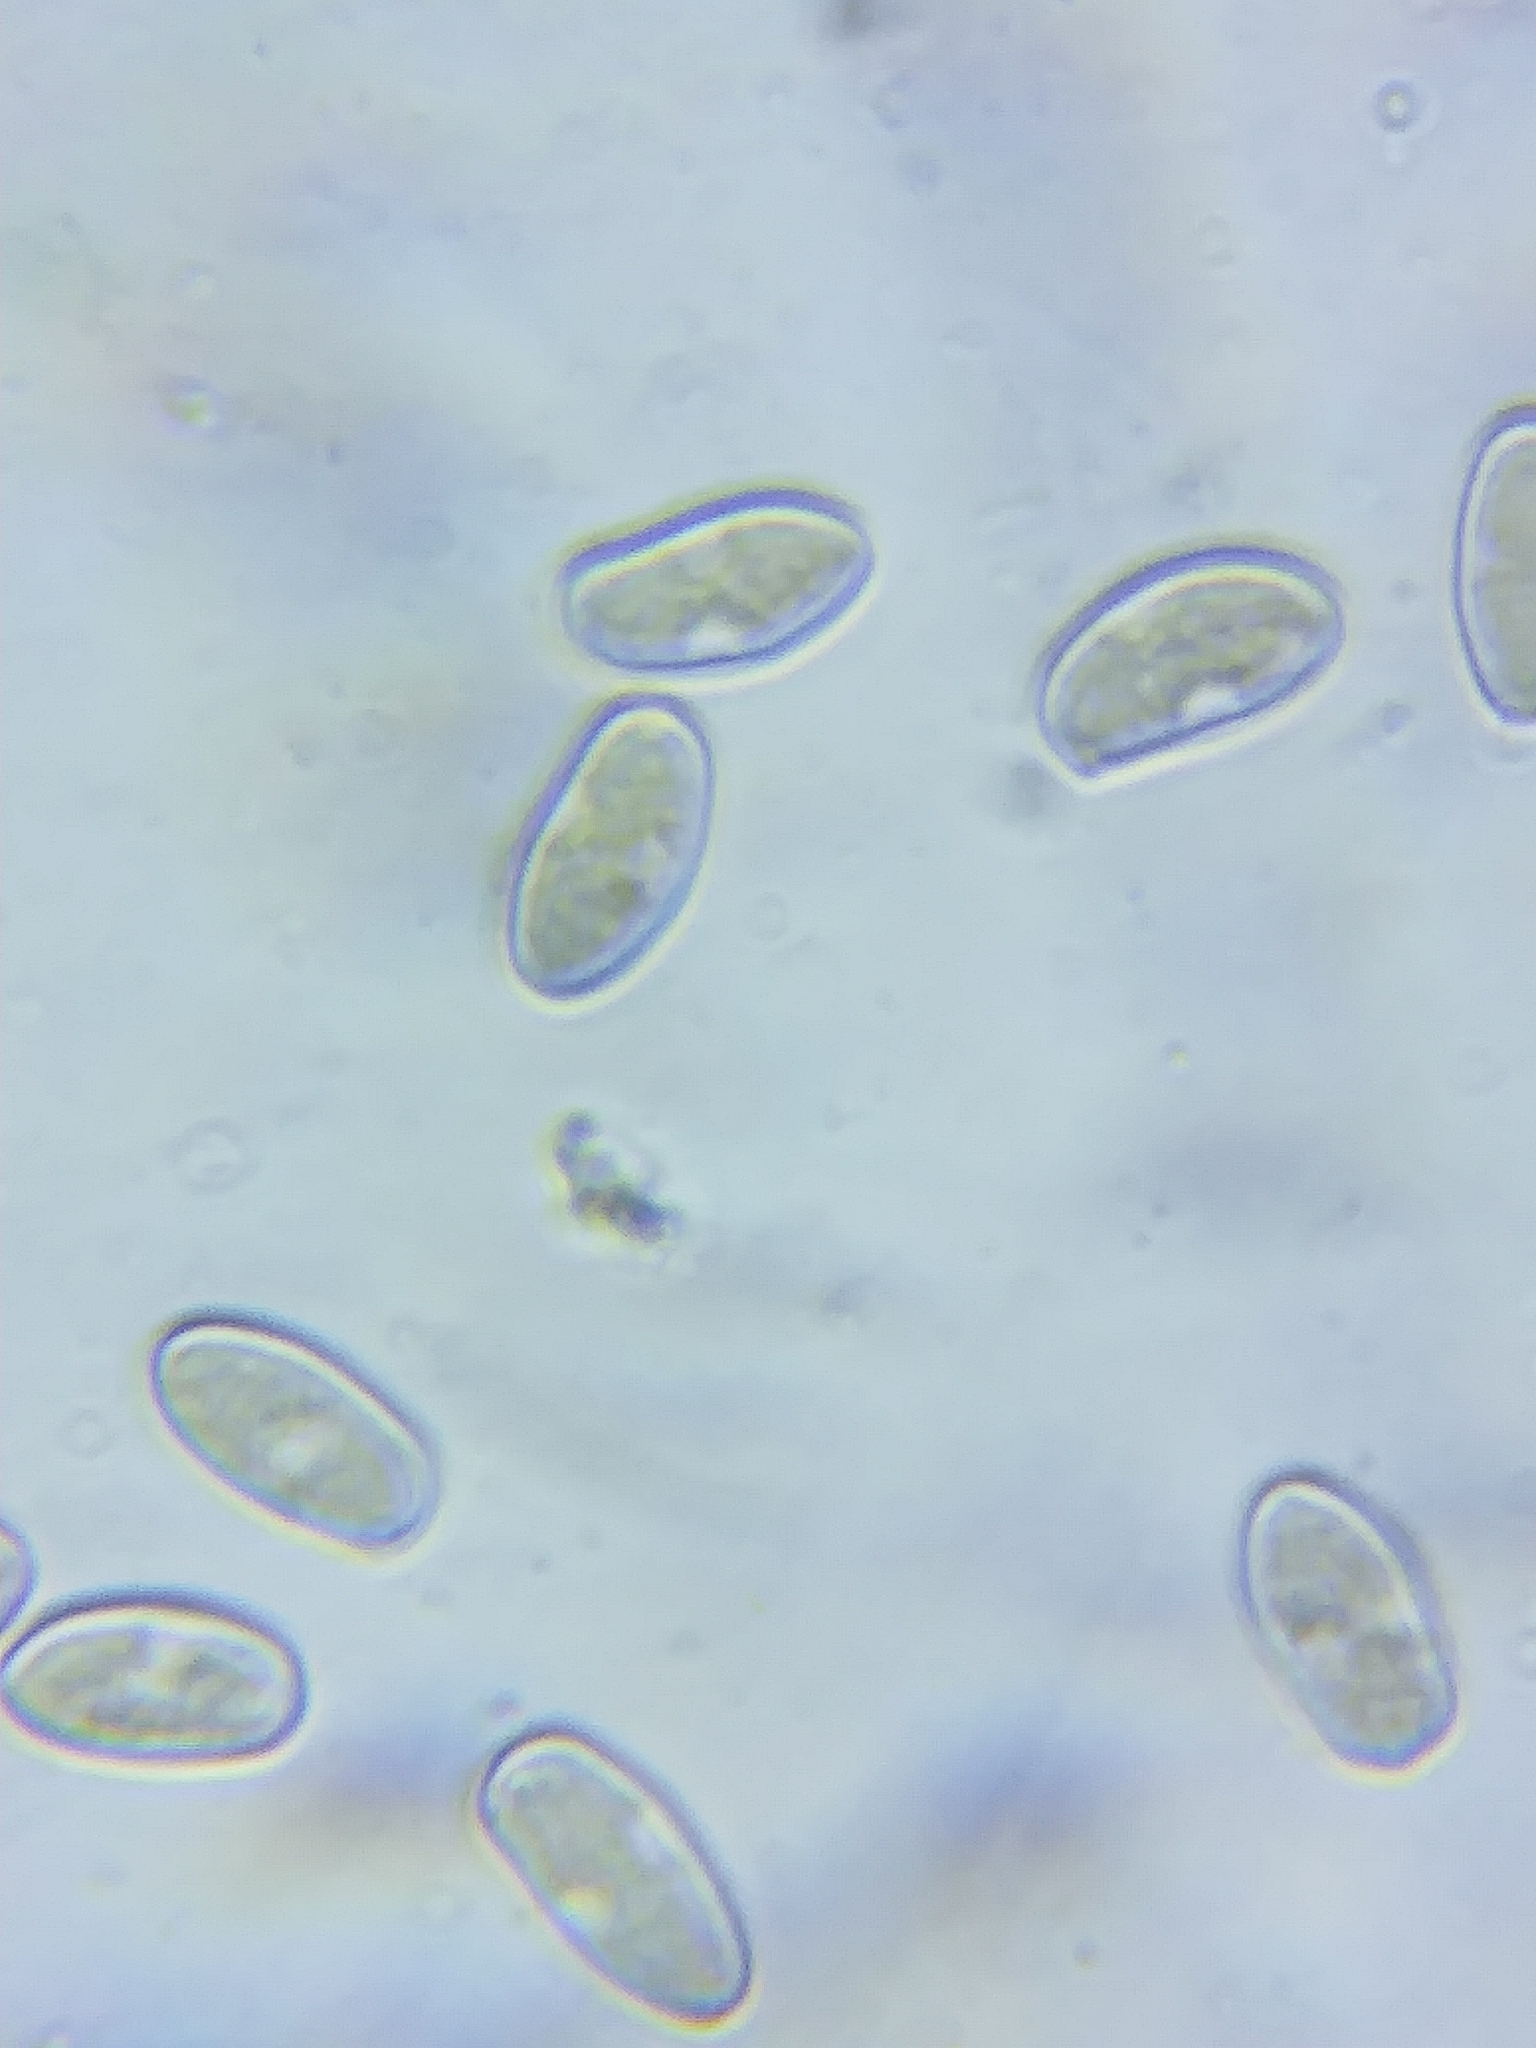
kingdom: Fungi
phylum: Basidiomycota
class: Agaricomycetes
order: Agaricales
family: Inocybaceae
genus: Inocybe
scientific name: Inocybe lacera
